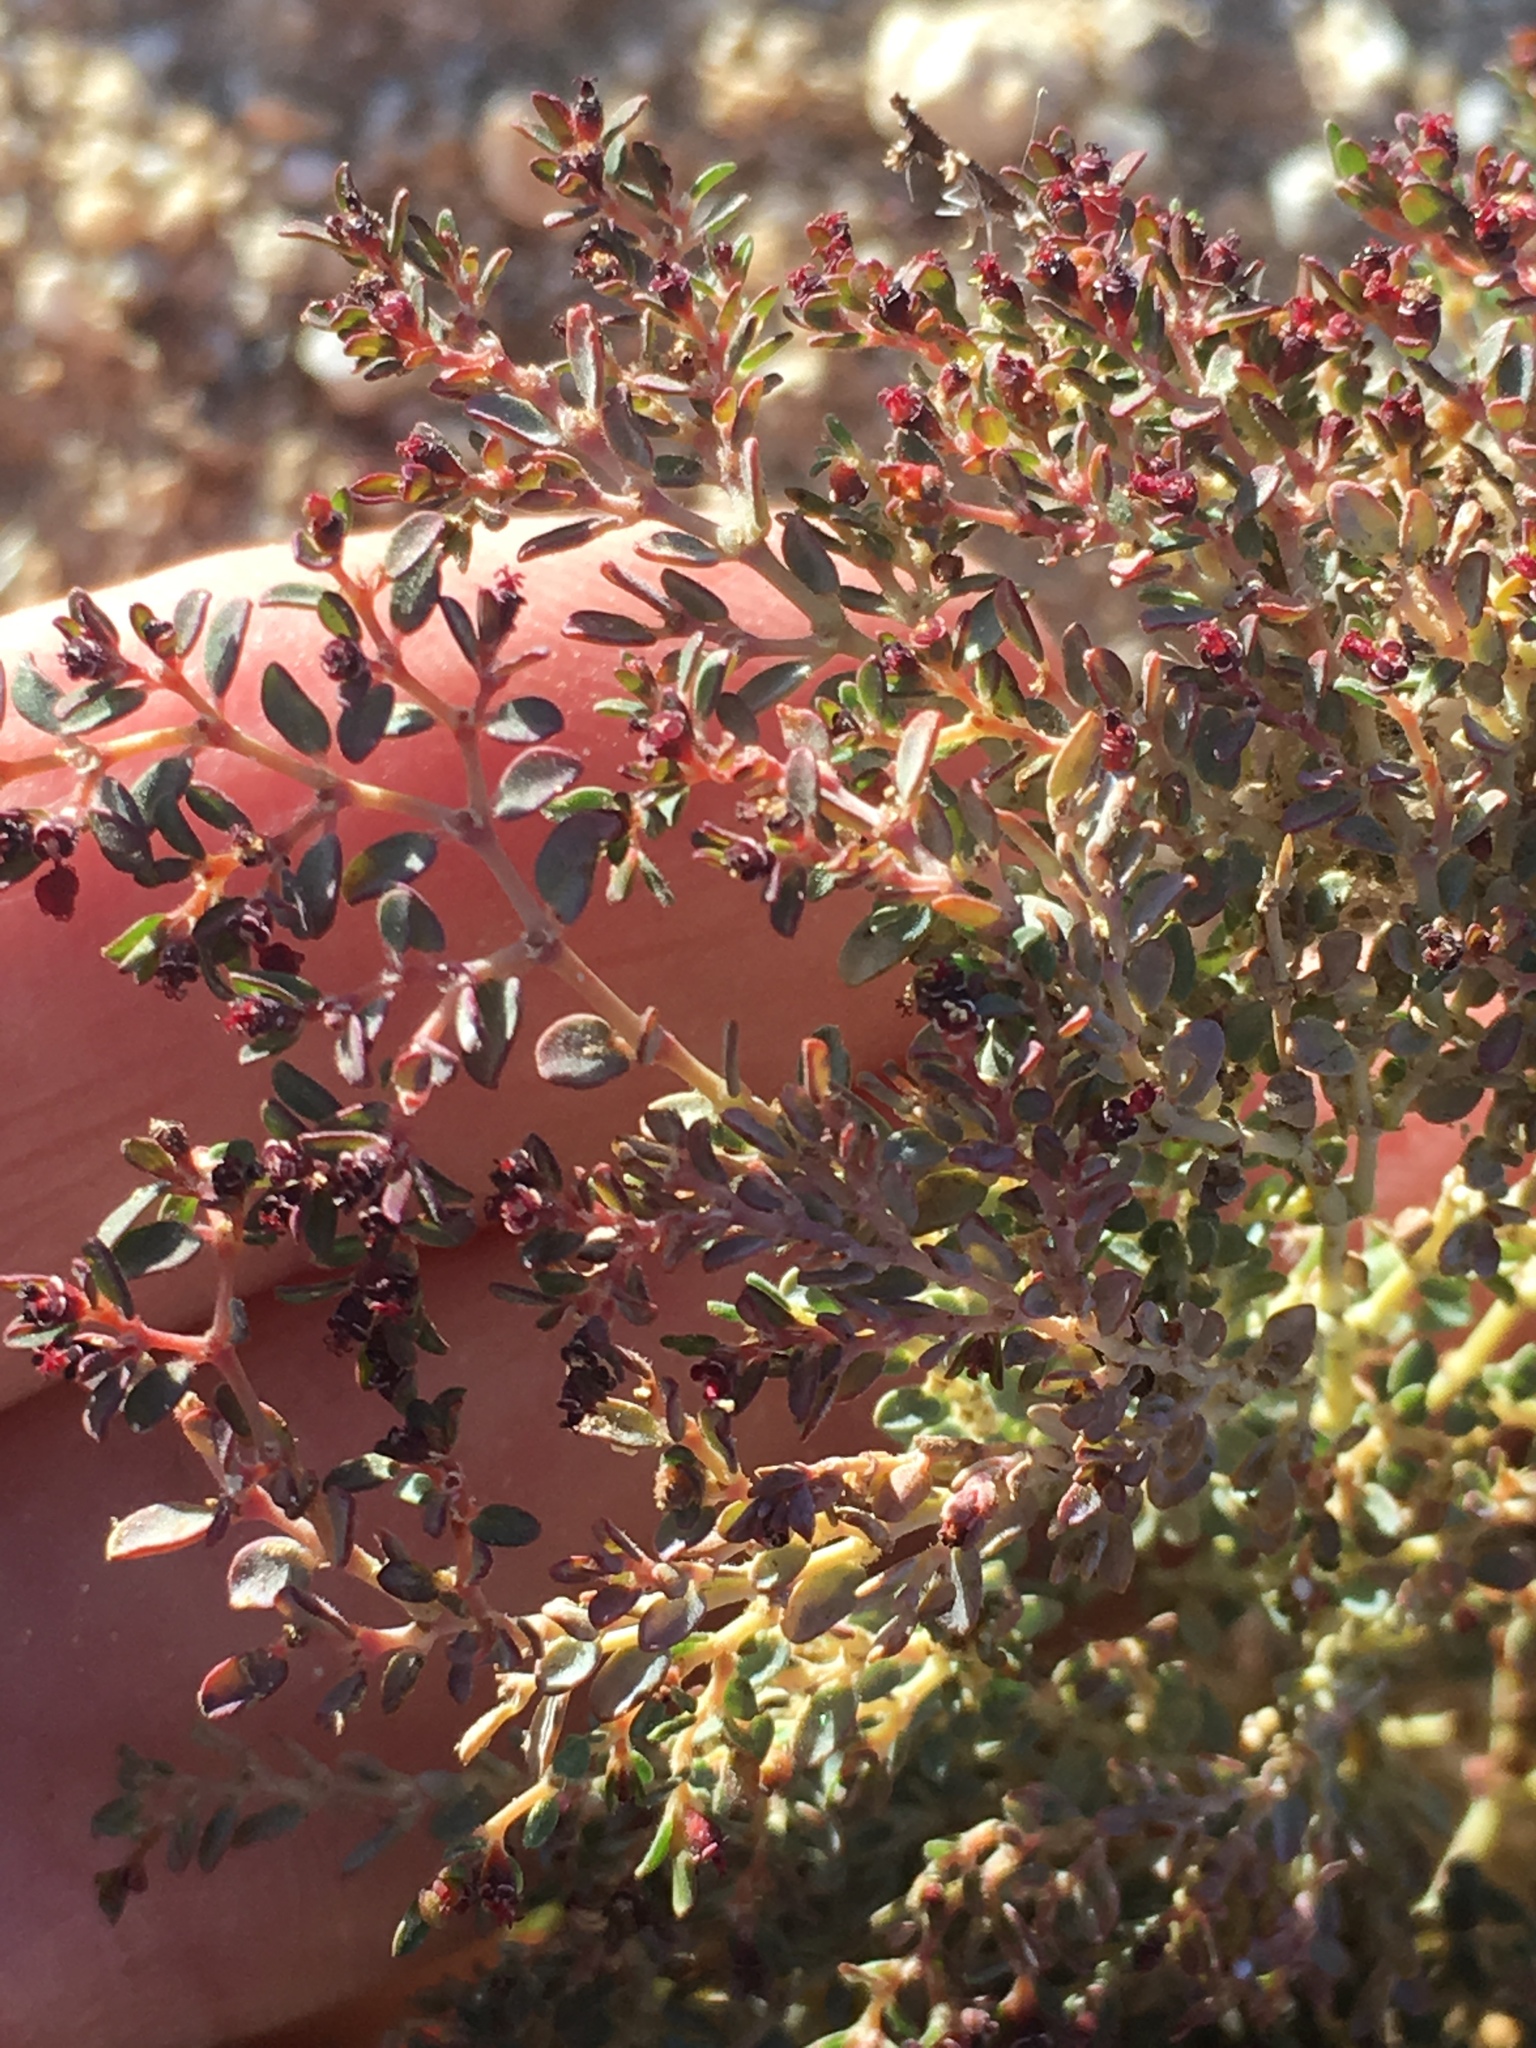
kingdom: Plantae
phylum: Tracheophyta
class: Magnoliopsida
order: Malpighiales
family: Euphorbiaceae
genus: Euphorbia
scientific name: Euphorbia polycarpa
